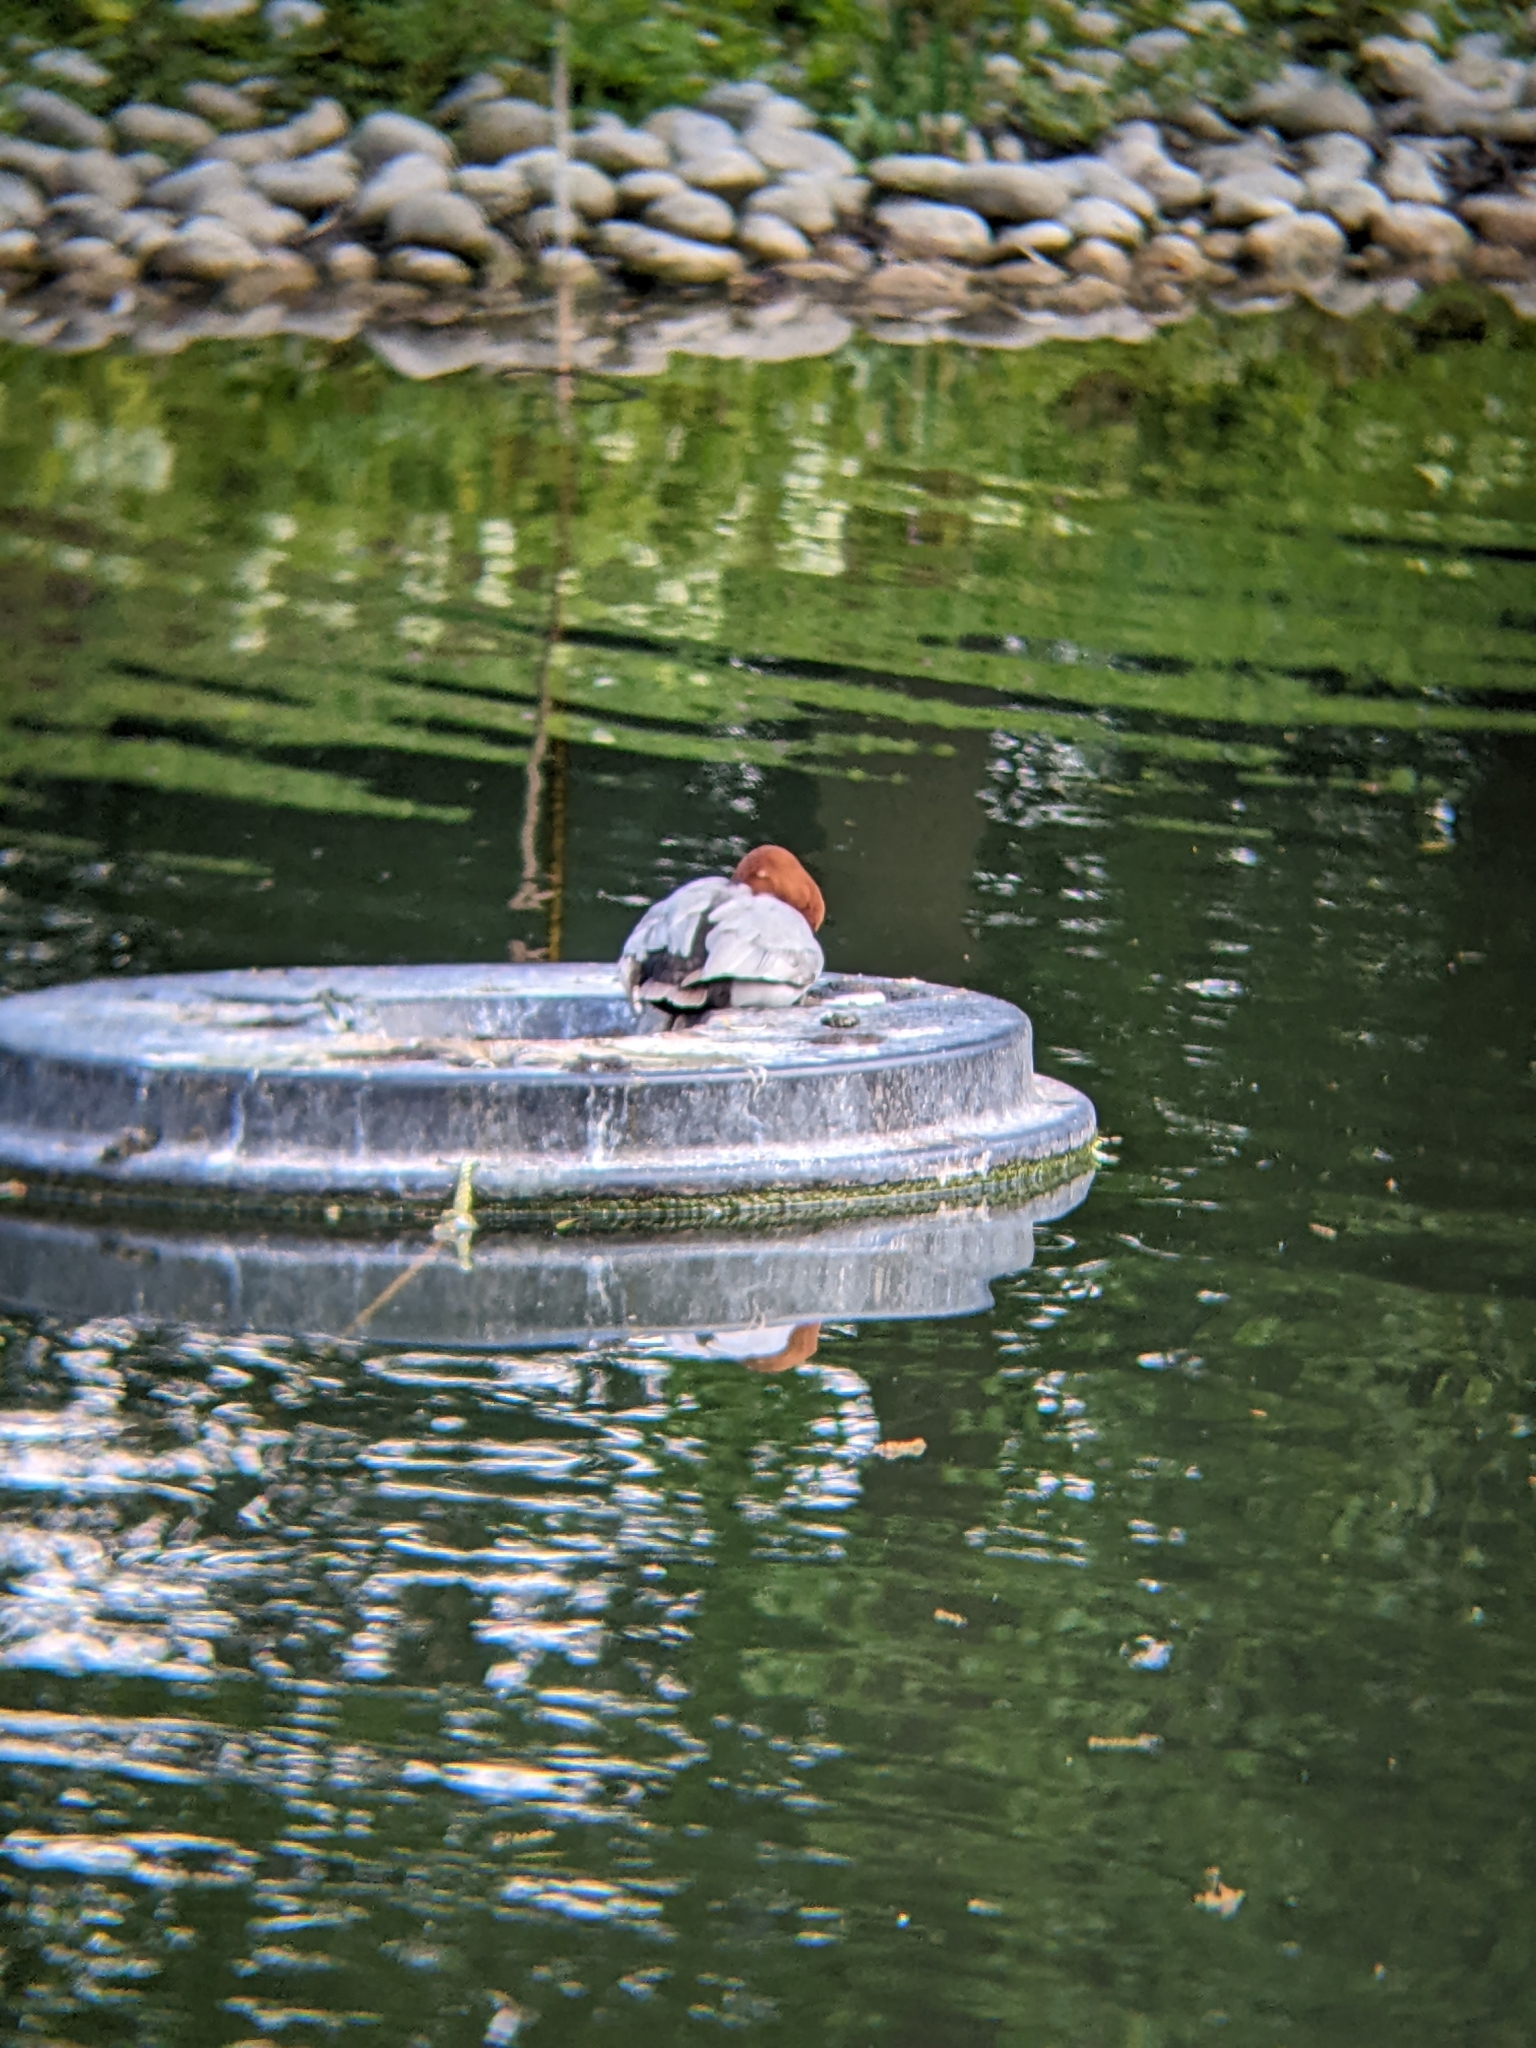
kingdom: Animalia
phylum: Chordata
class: Aves
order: Anseriformes
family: Anatidae
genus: Aythya
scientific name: Aythya ferina
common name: Common pochard
